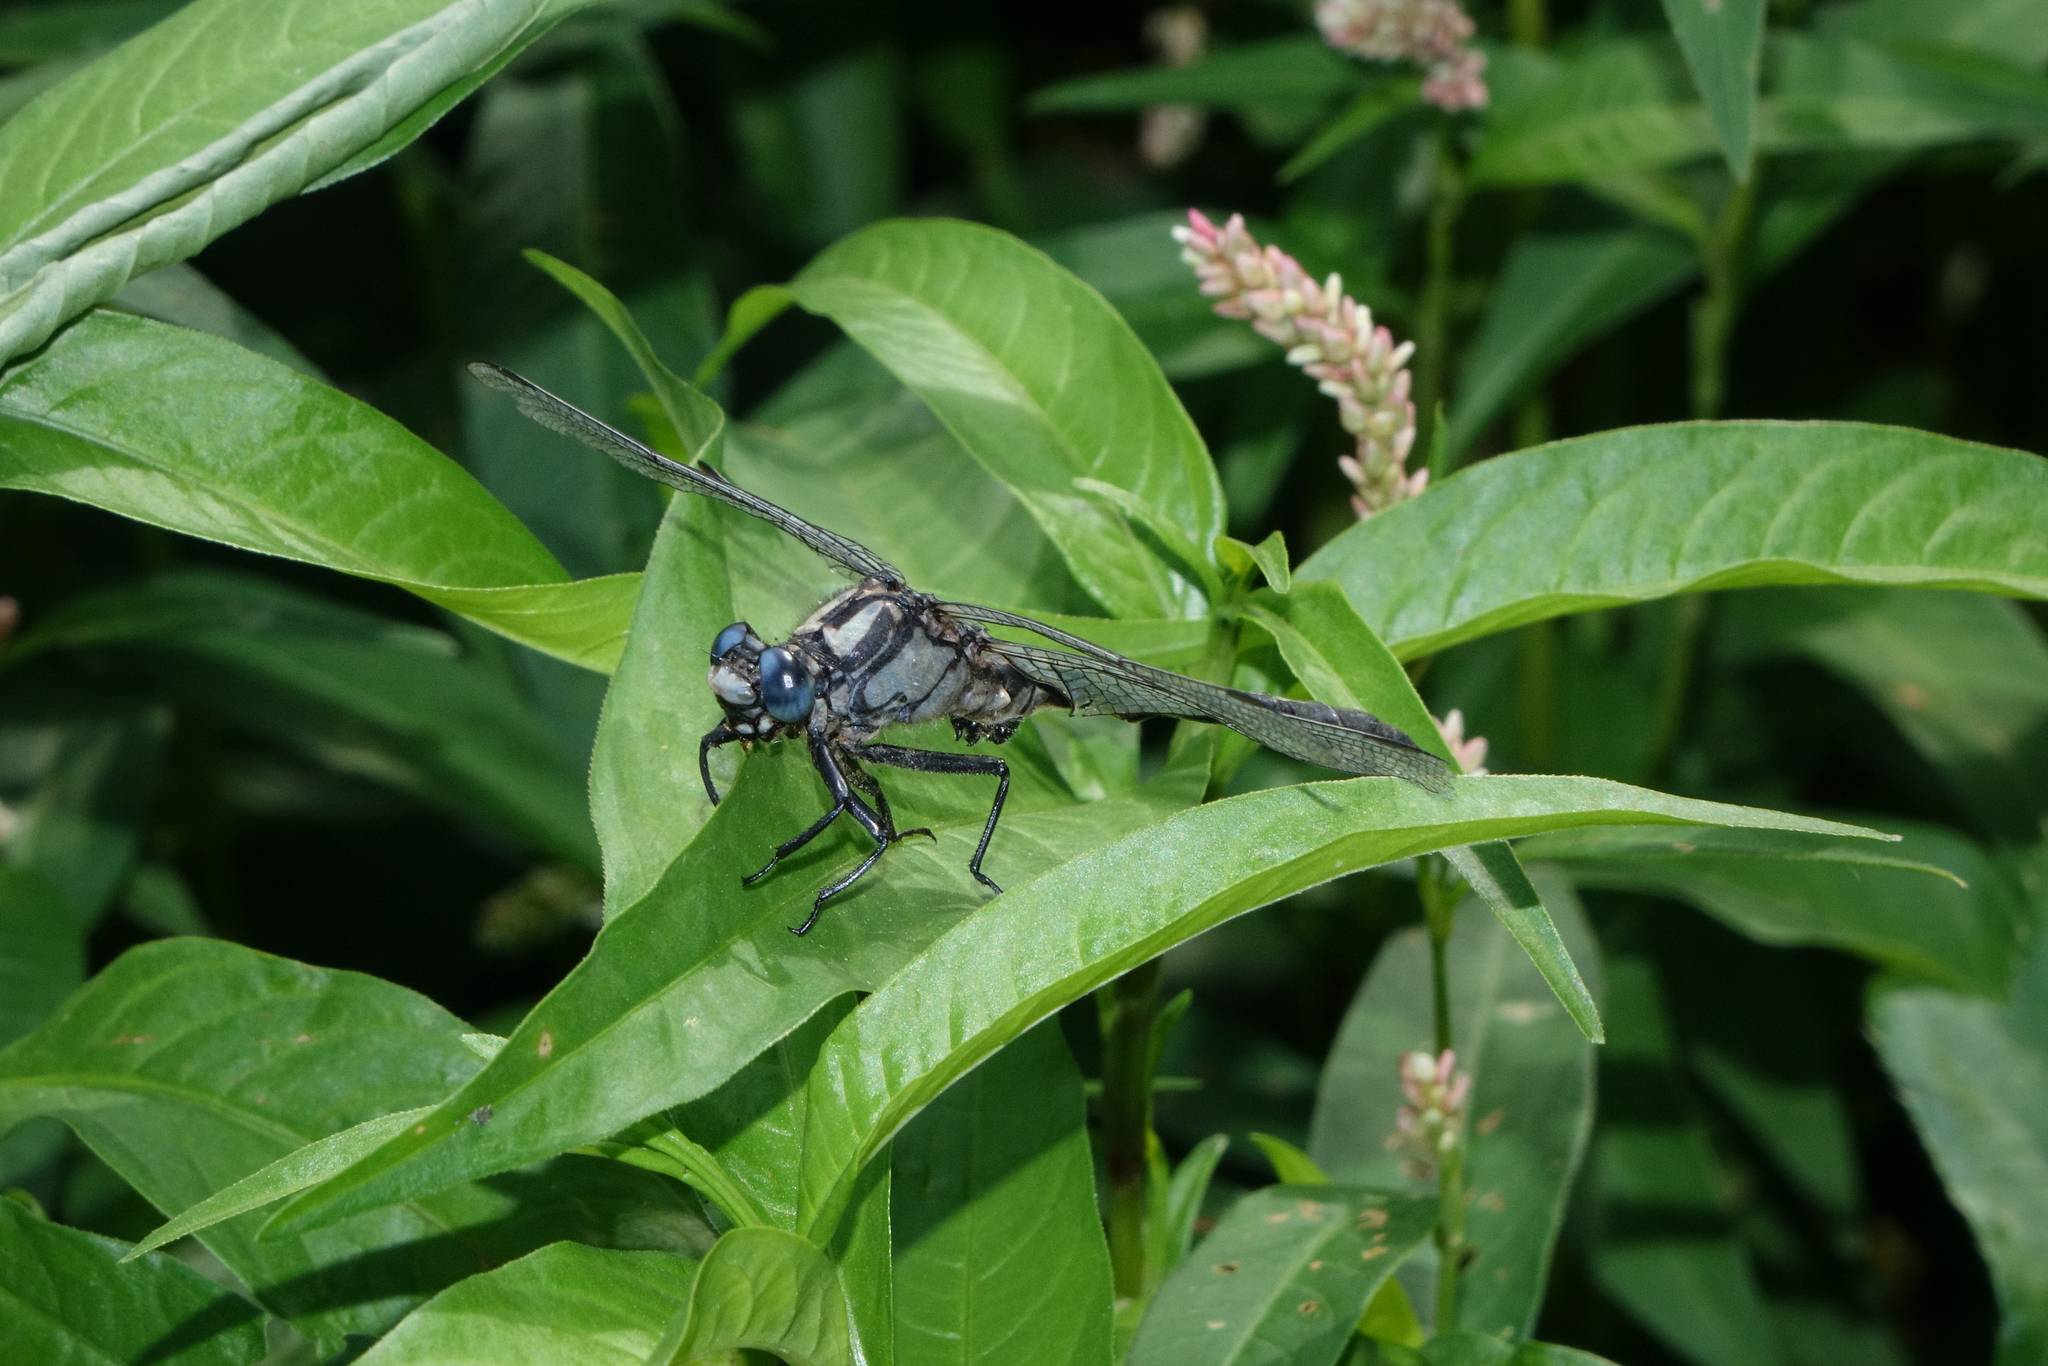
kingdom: Plantae
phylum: Tracheophyta
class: Magnoliopsida
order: Caryophyllales
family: Polygonaceae
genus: Persicaria
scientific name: Persicaria lapathifolia
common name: Curlytop knotweed
